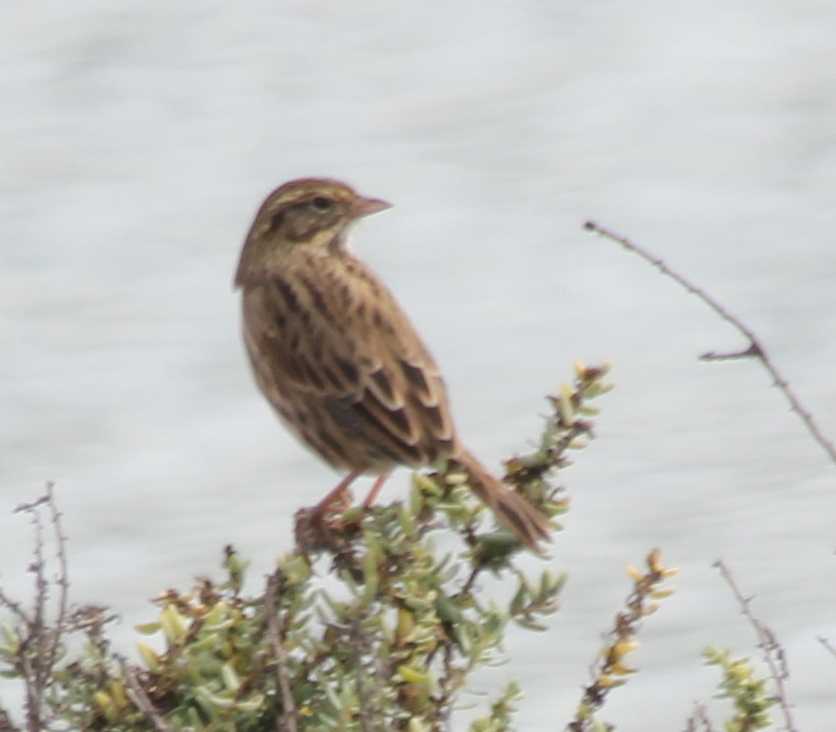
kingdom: Animalia
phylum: Chordata
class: Aves
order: Passeriformes
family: Passerellidae
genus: Passerculus
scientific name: Passerculus sandwichensis
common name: Savannah sparrow
